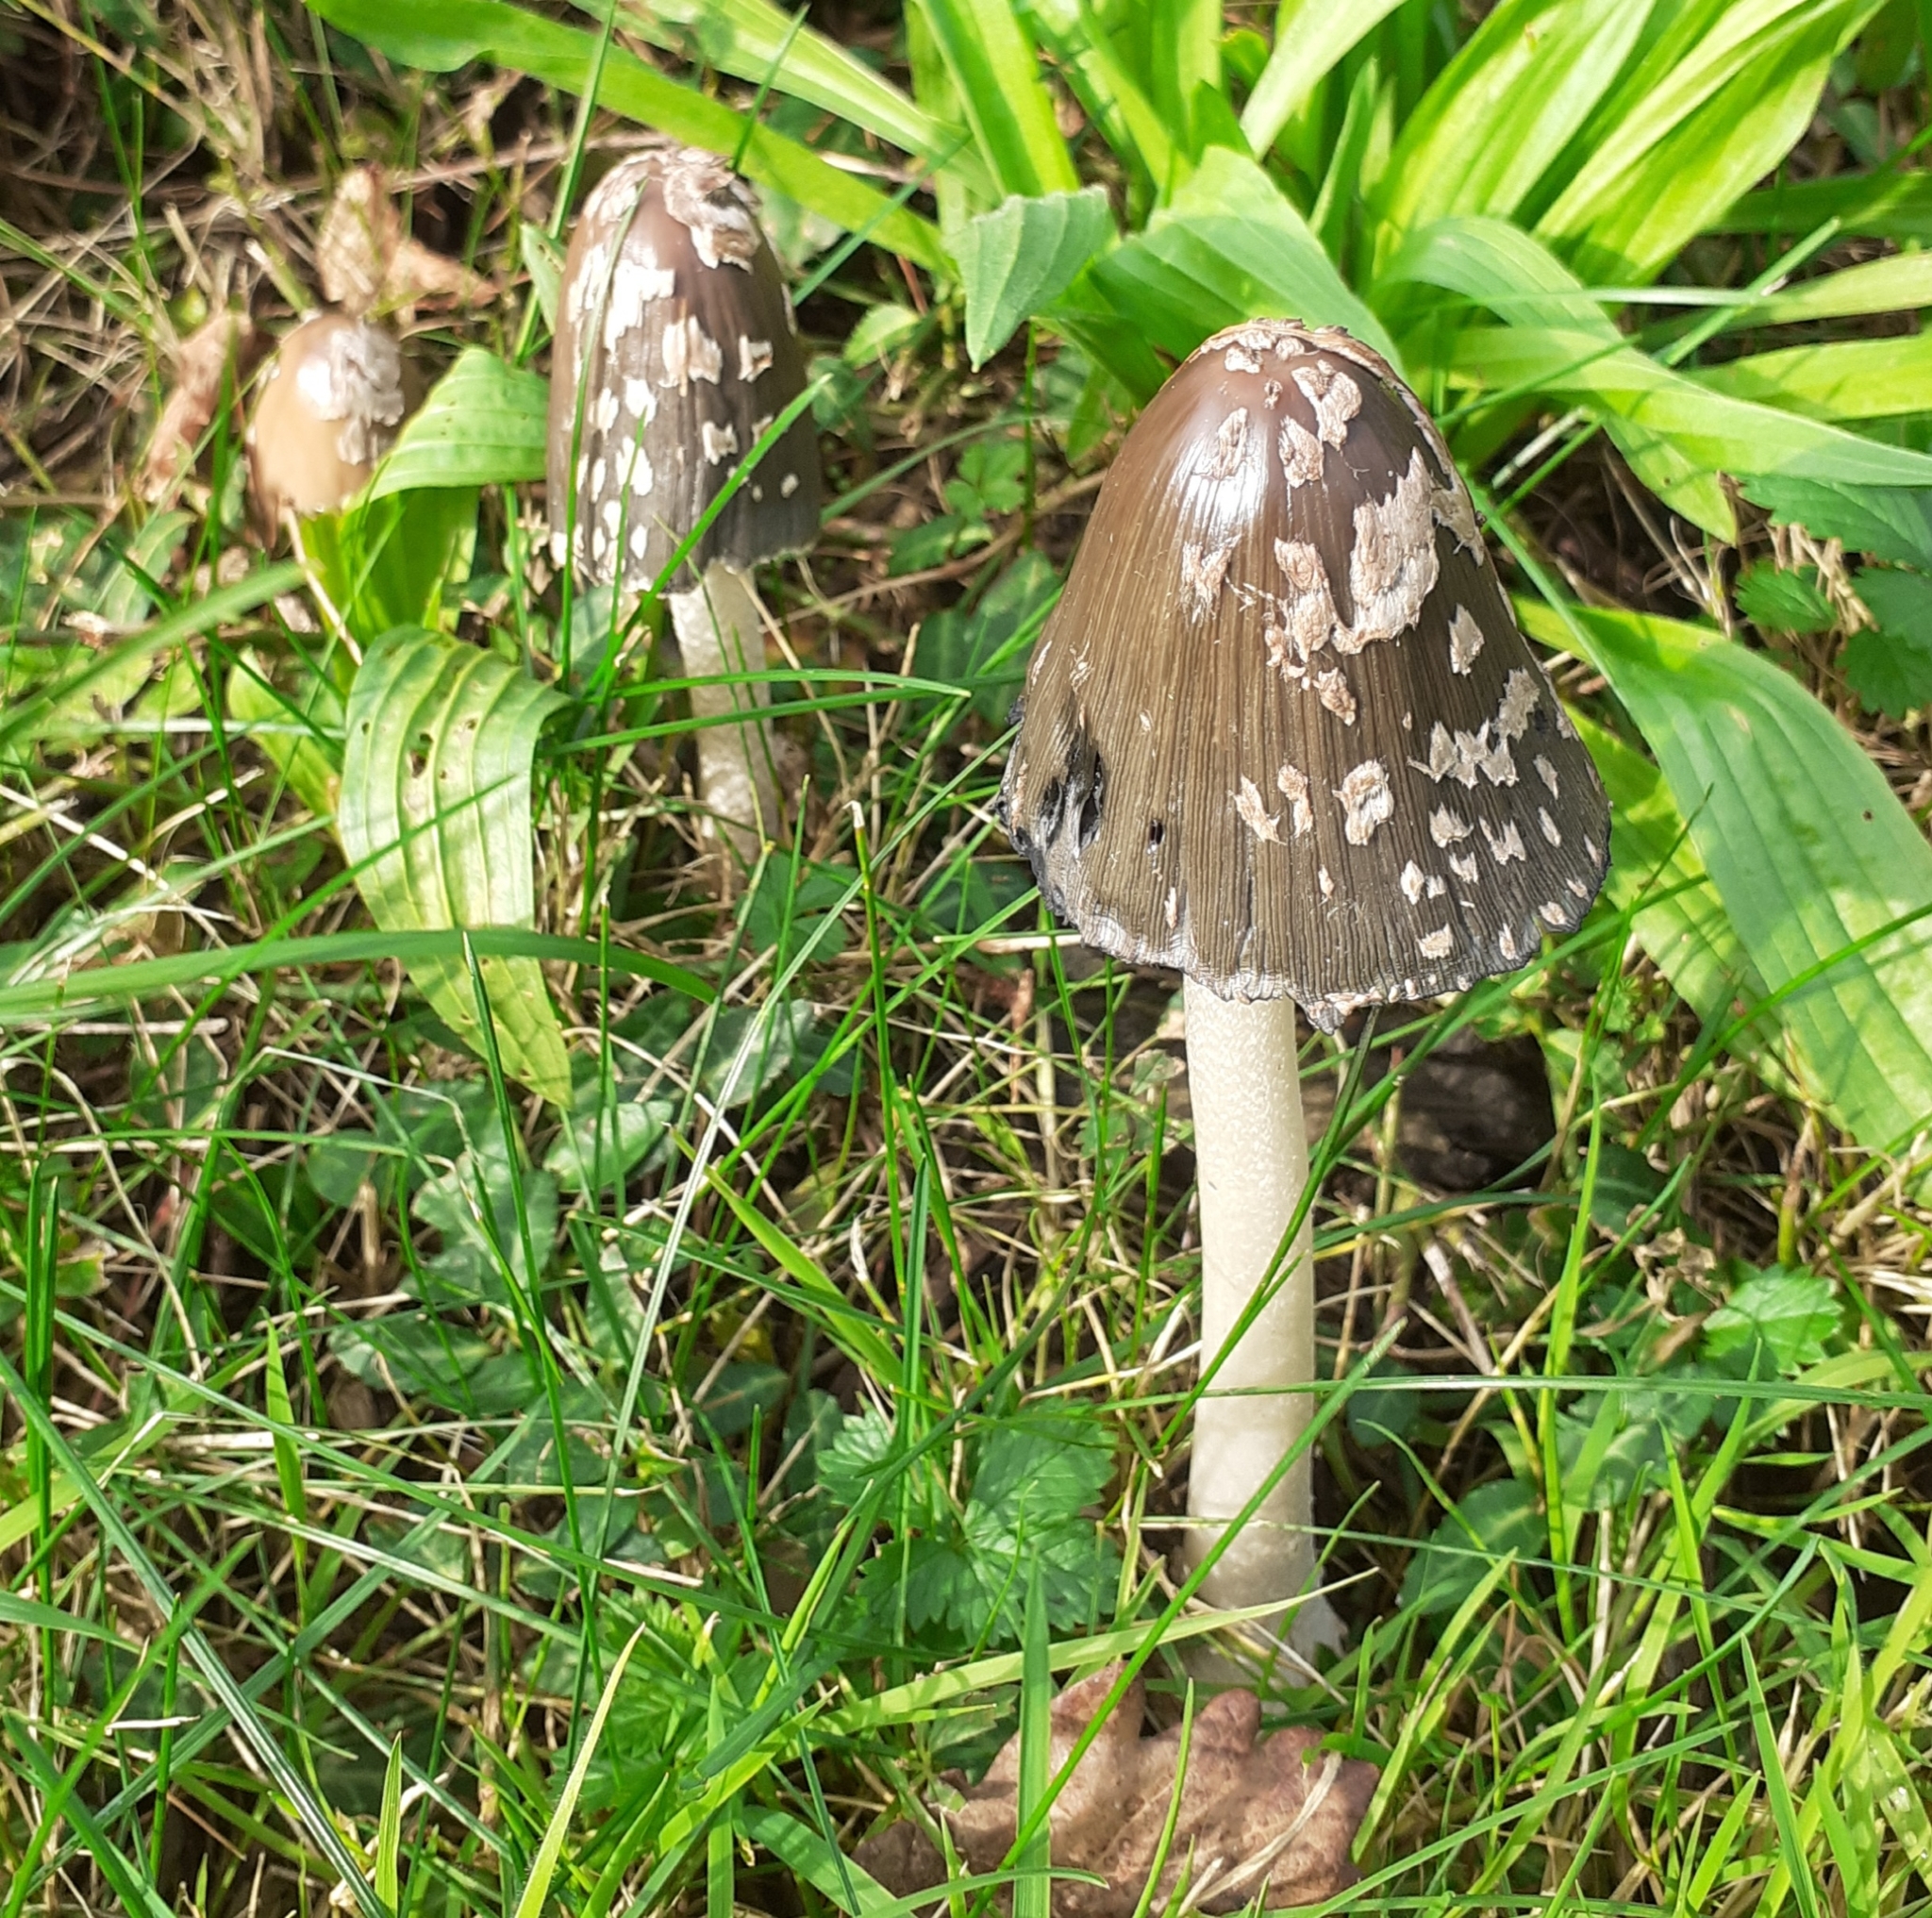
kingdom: Fungi
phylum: Basidiomycota
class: Agaricomycetes
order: Agaricales
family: Psathyrellaceae
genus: Coprinopsis
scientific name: Coprinopsis picacea
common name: Magpie inkcap
